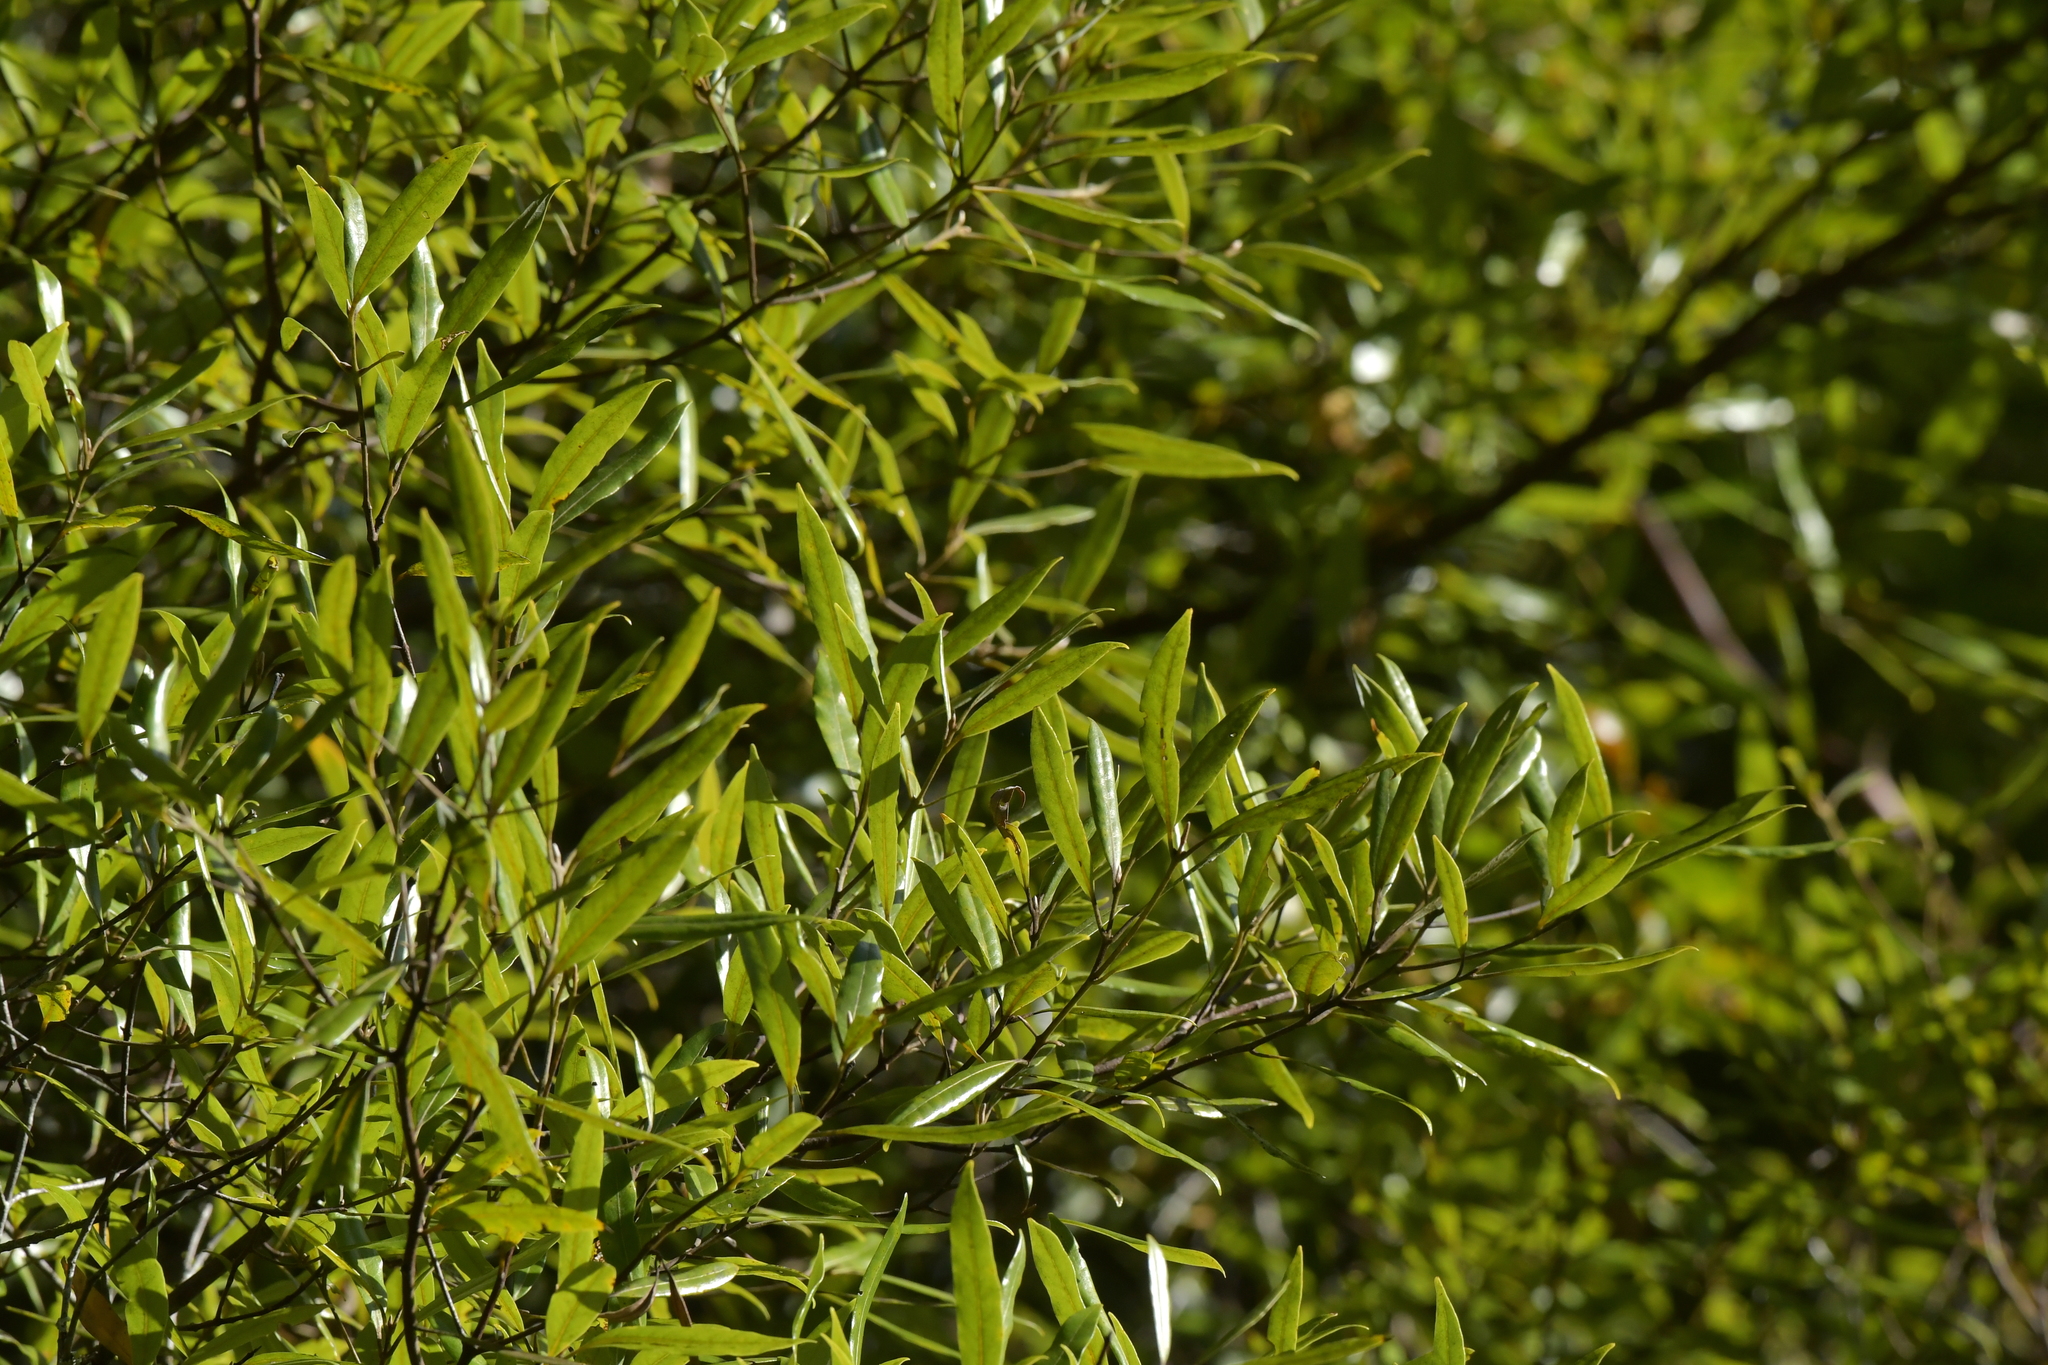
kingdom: Plantae
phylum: Tracheophyta
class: Magnoliopsida
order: Laurales
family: Lauraceae
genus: Beilschmiedia
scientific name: Beilschmiedia tawa
